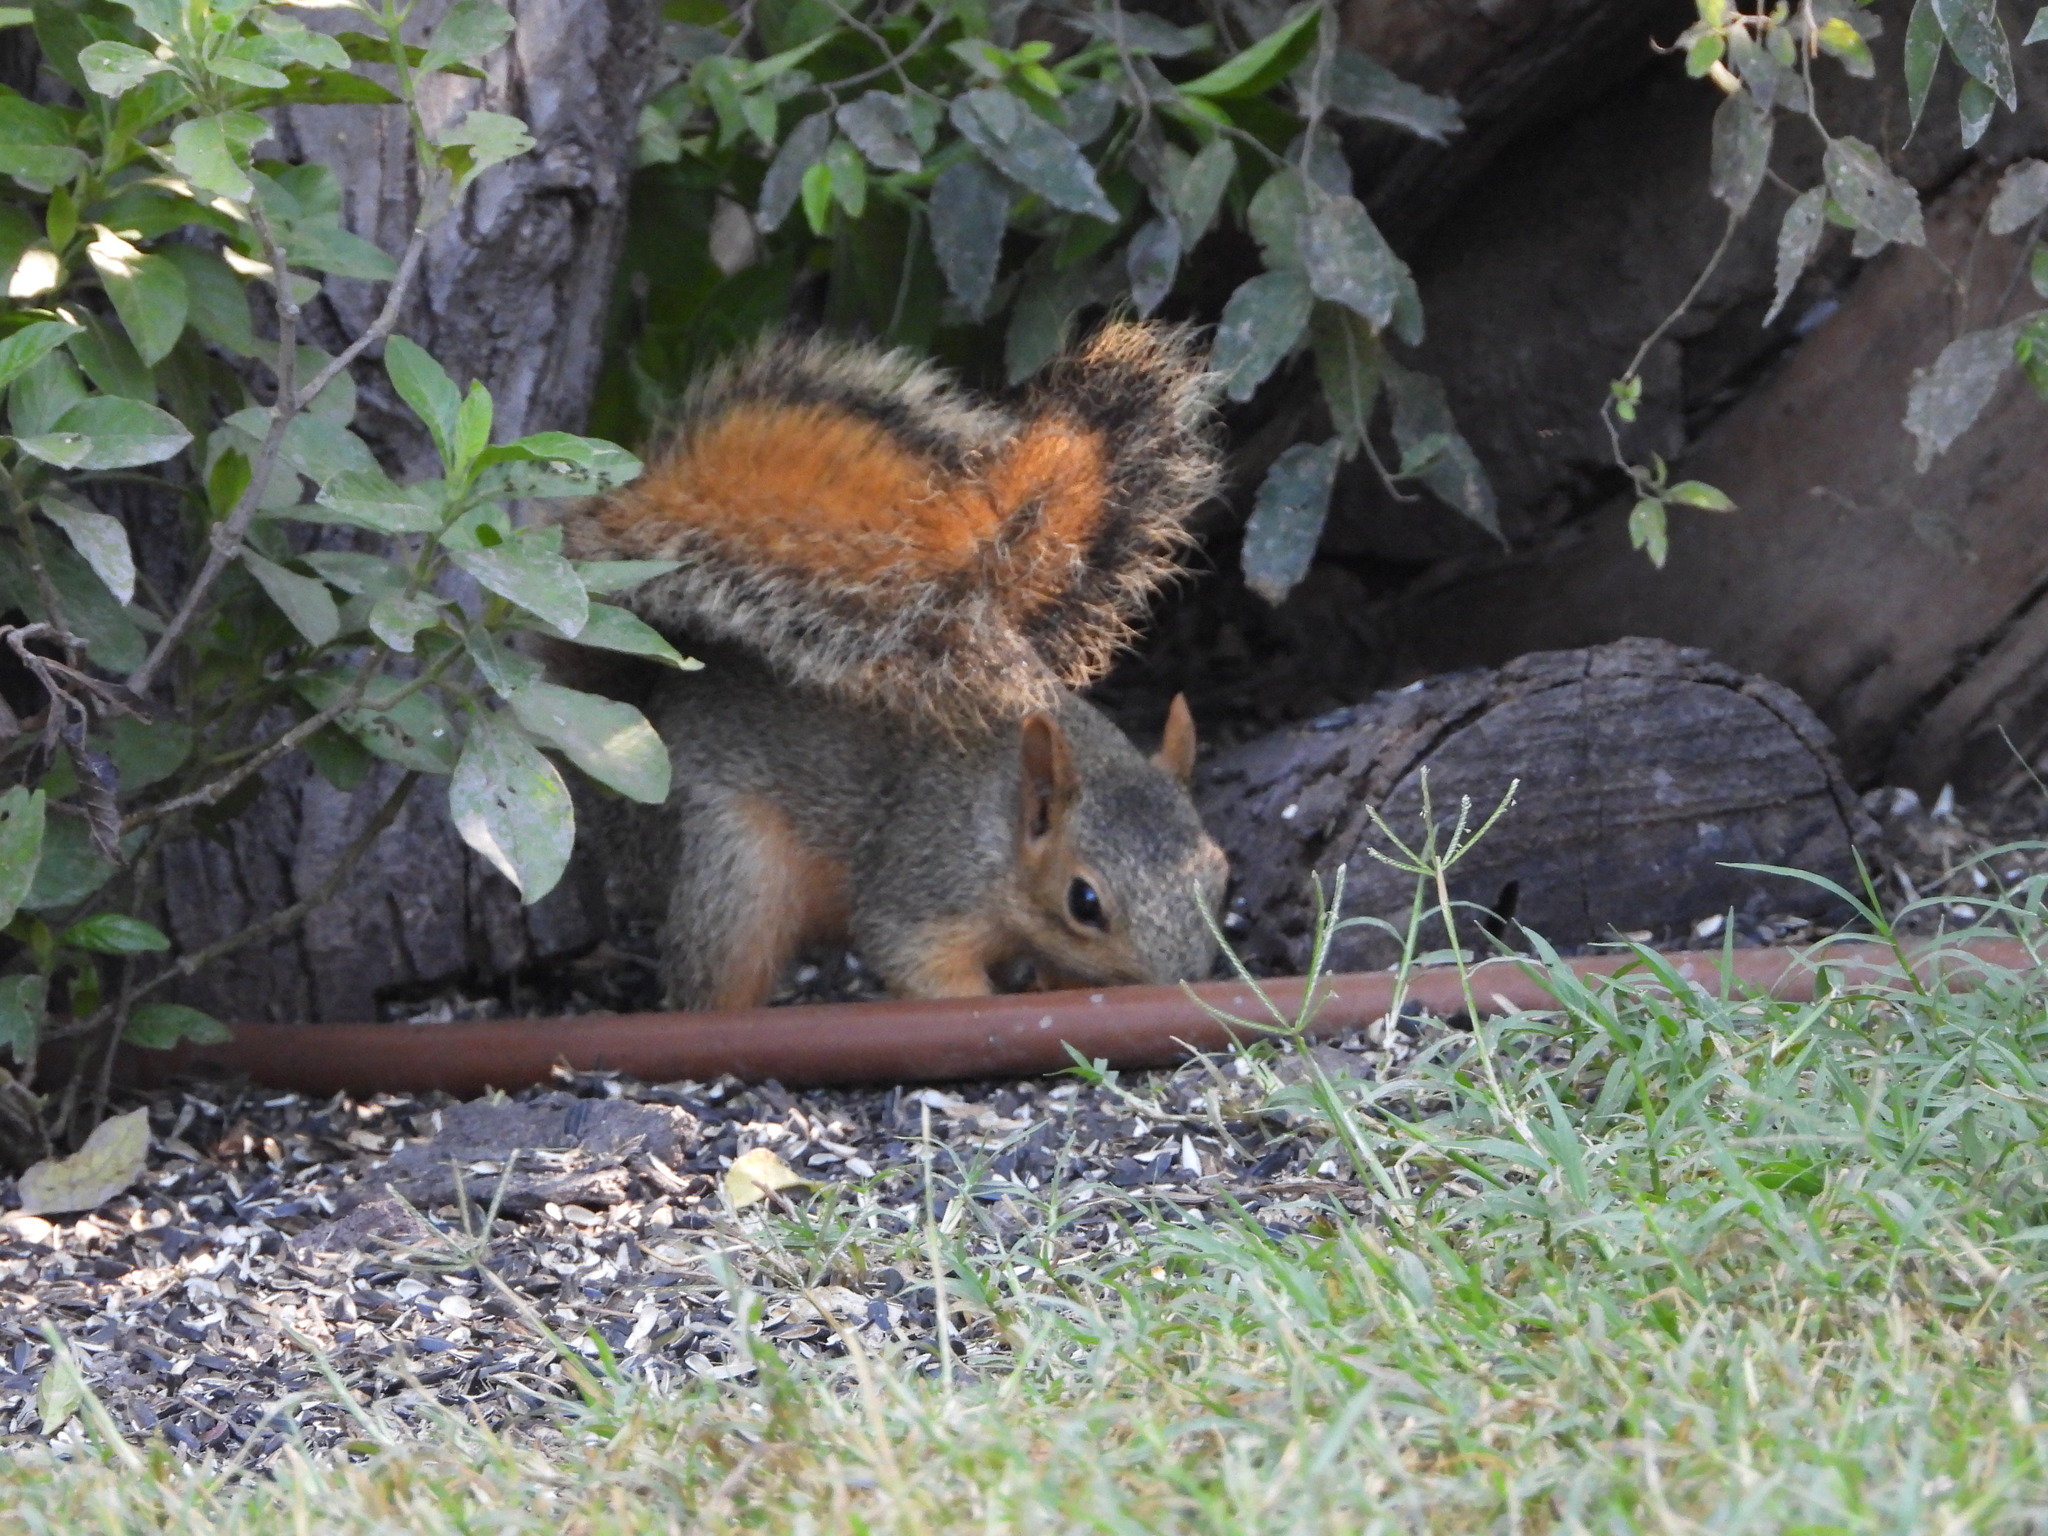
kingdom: Animalia
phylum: Chordata
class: Mammalia
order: Rodentia
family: Sciuridae
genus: Sciurus
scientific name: Sciurus niger
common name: Fox squirrel
